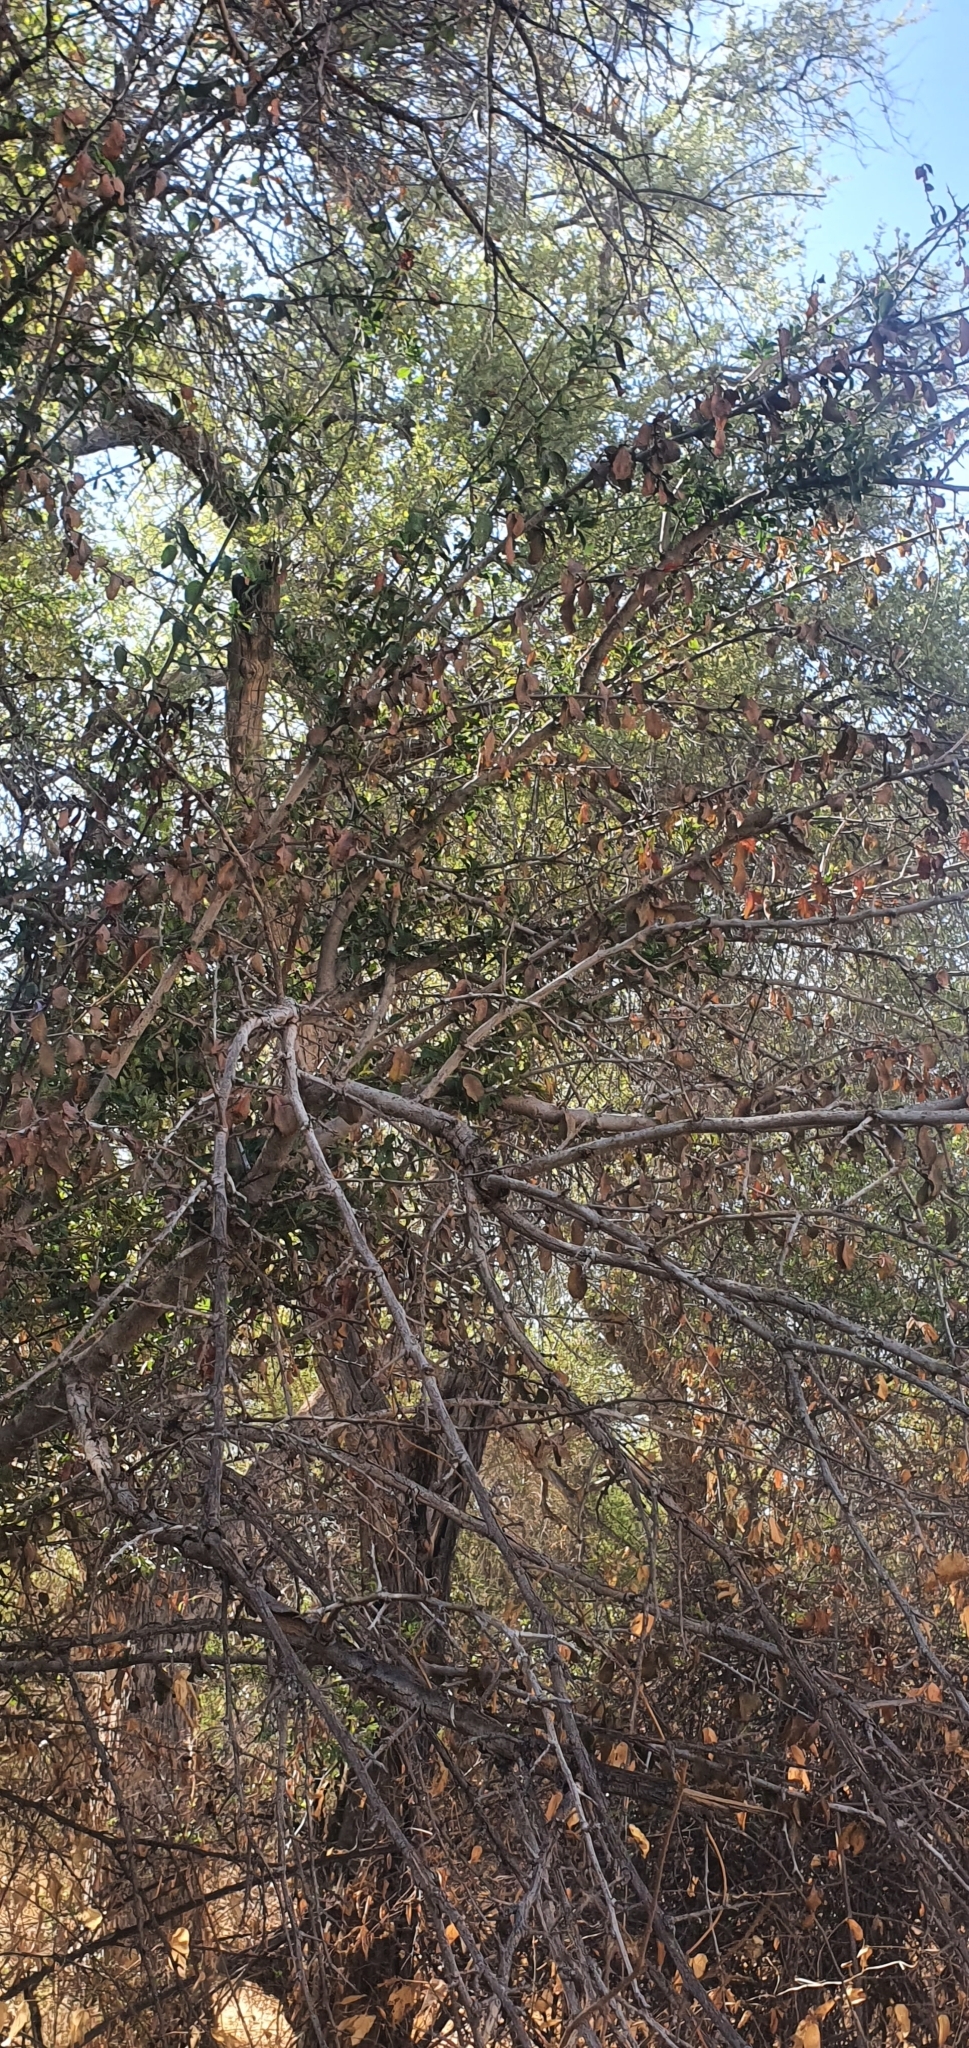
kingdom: Plantae
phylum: Tracheophyta
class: Magnoliopsida
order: Myrtales
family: Combretaceae
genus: Terminalia
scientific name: Terminalia prunioides
